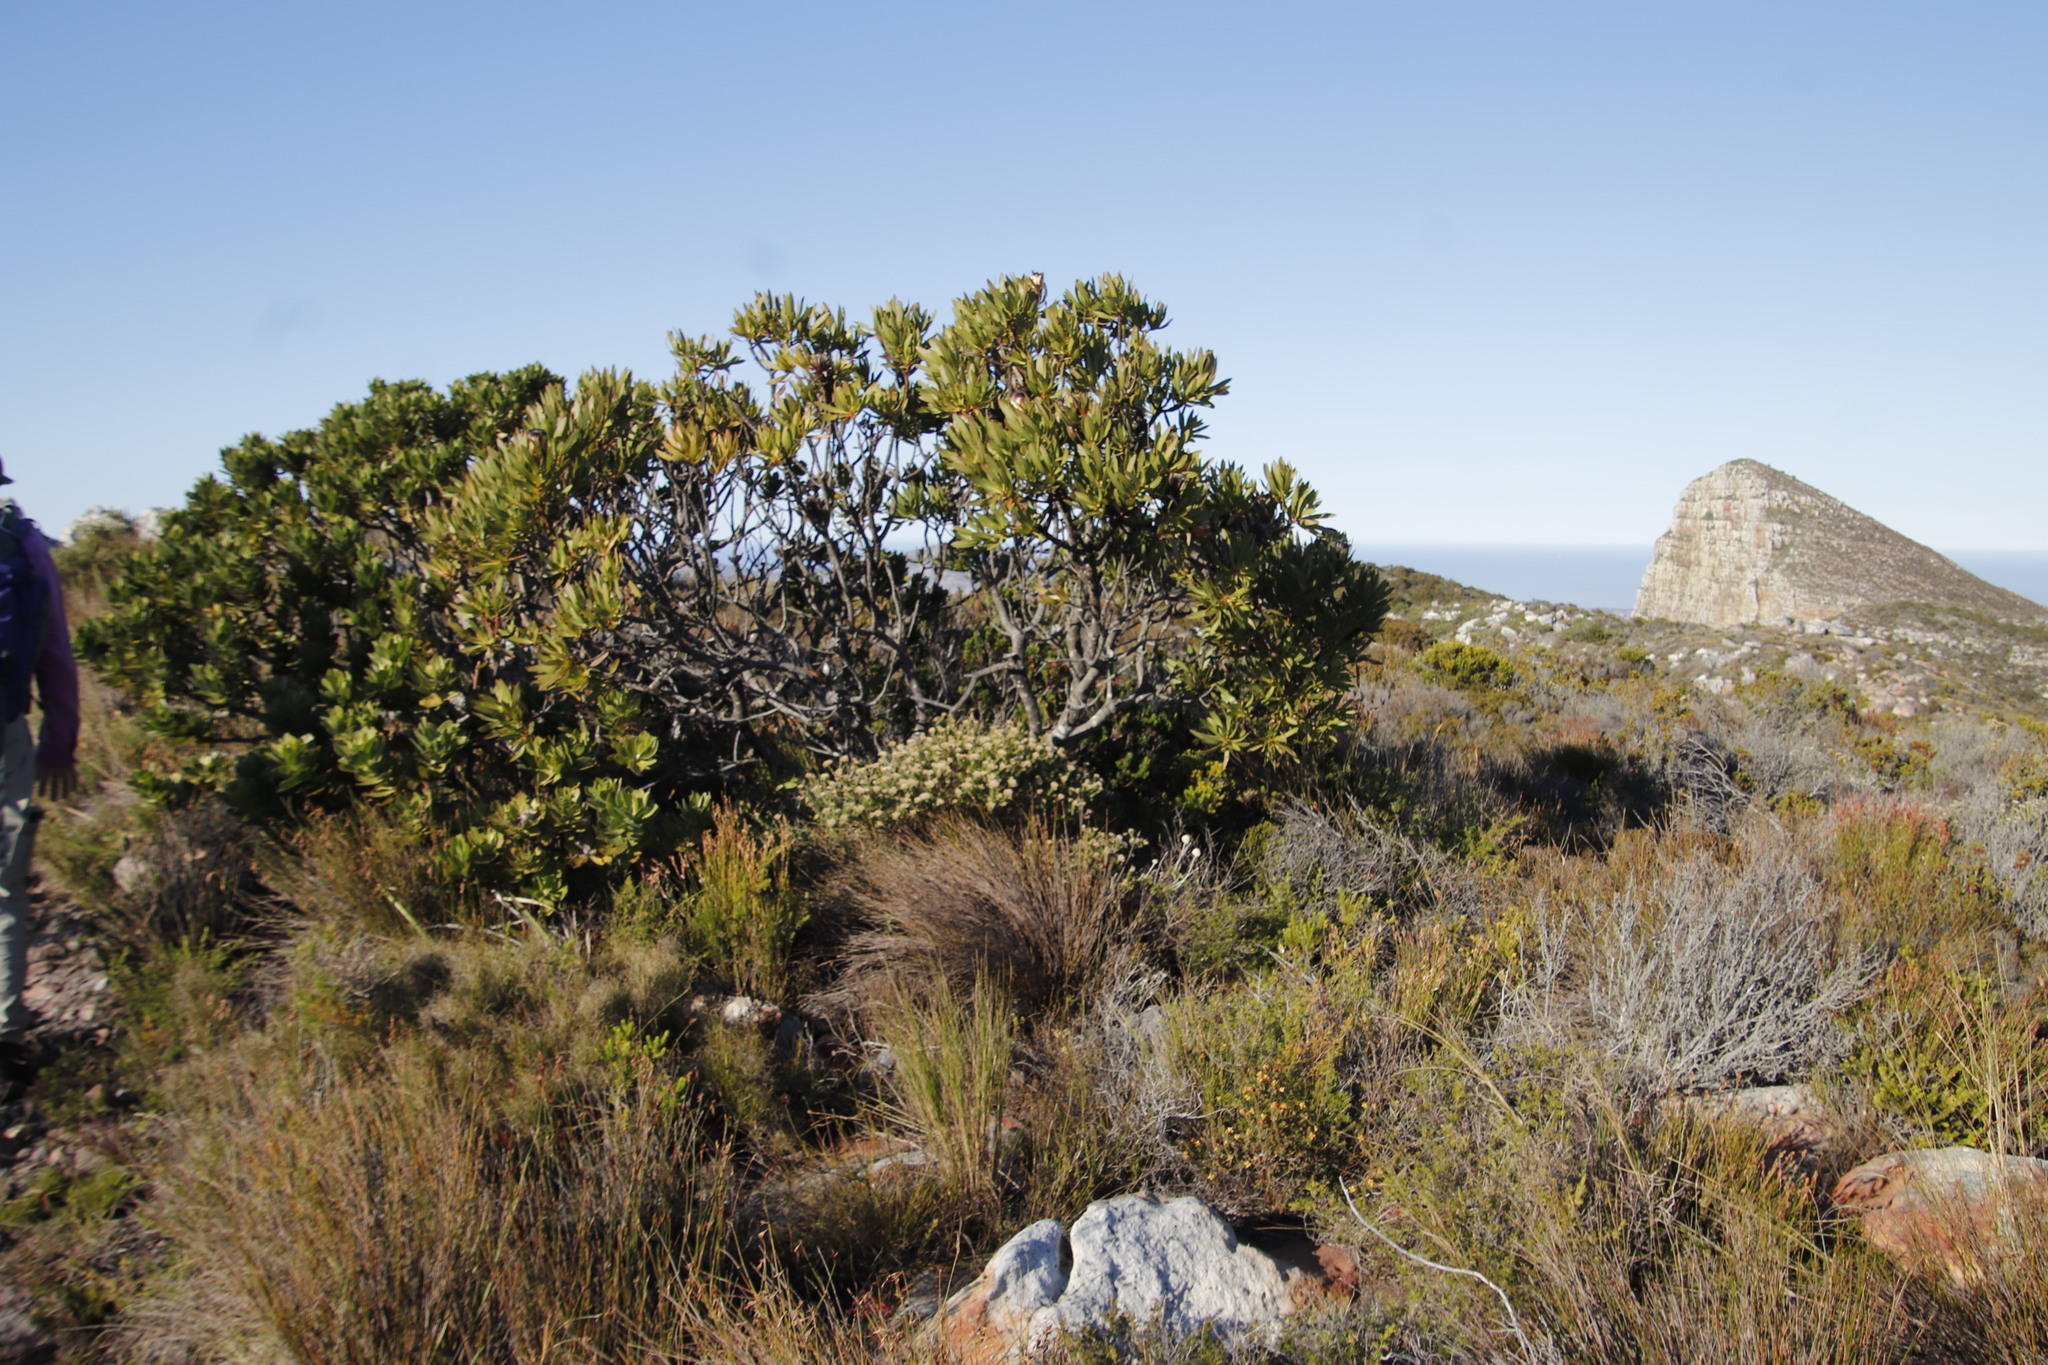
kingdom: Plantae
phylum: Tracheophyta
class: Magnoliopsida
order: Proteales
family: Proteaceae
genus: Protea
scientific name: Protea lepidocarpodendron
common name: Black-bearded protea
